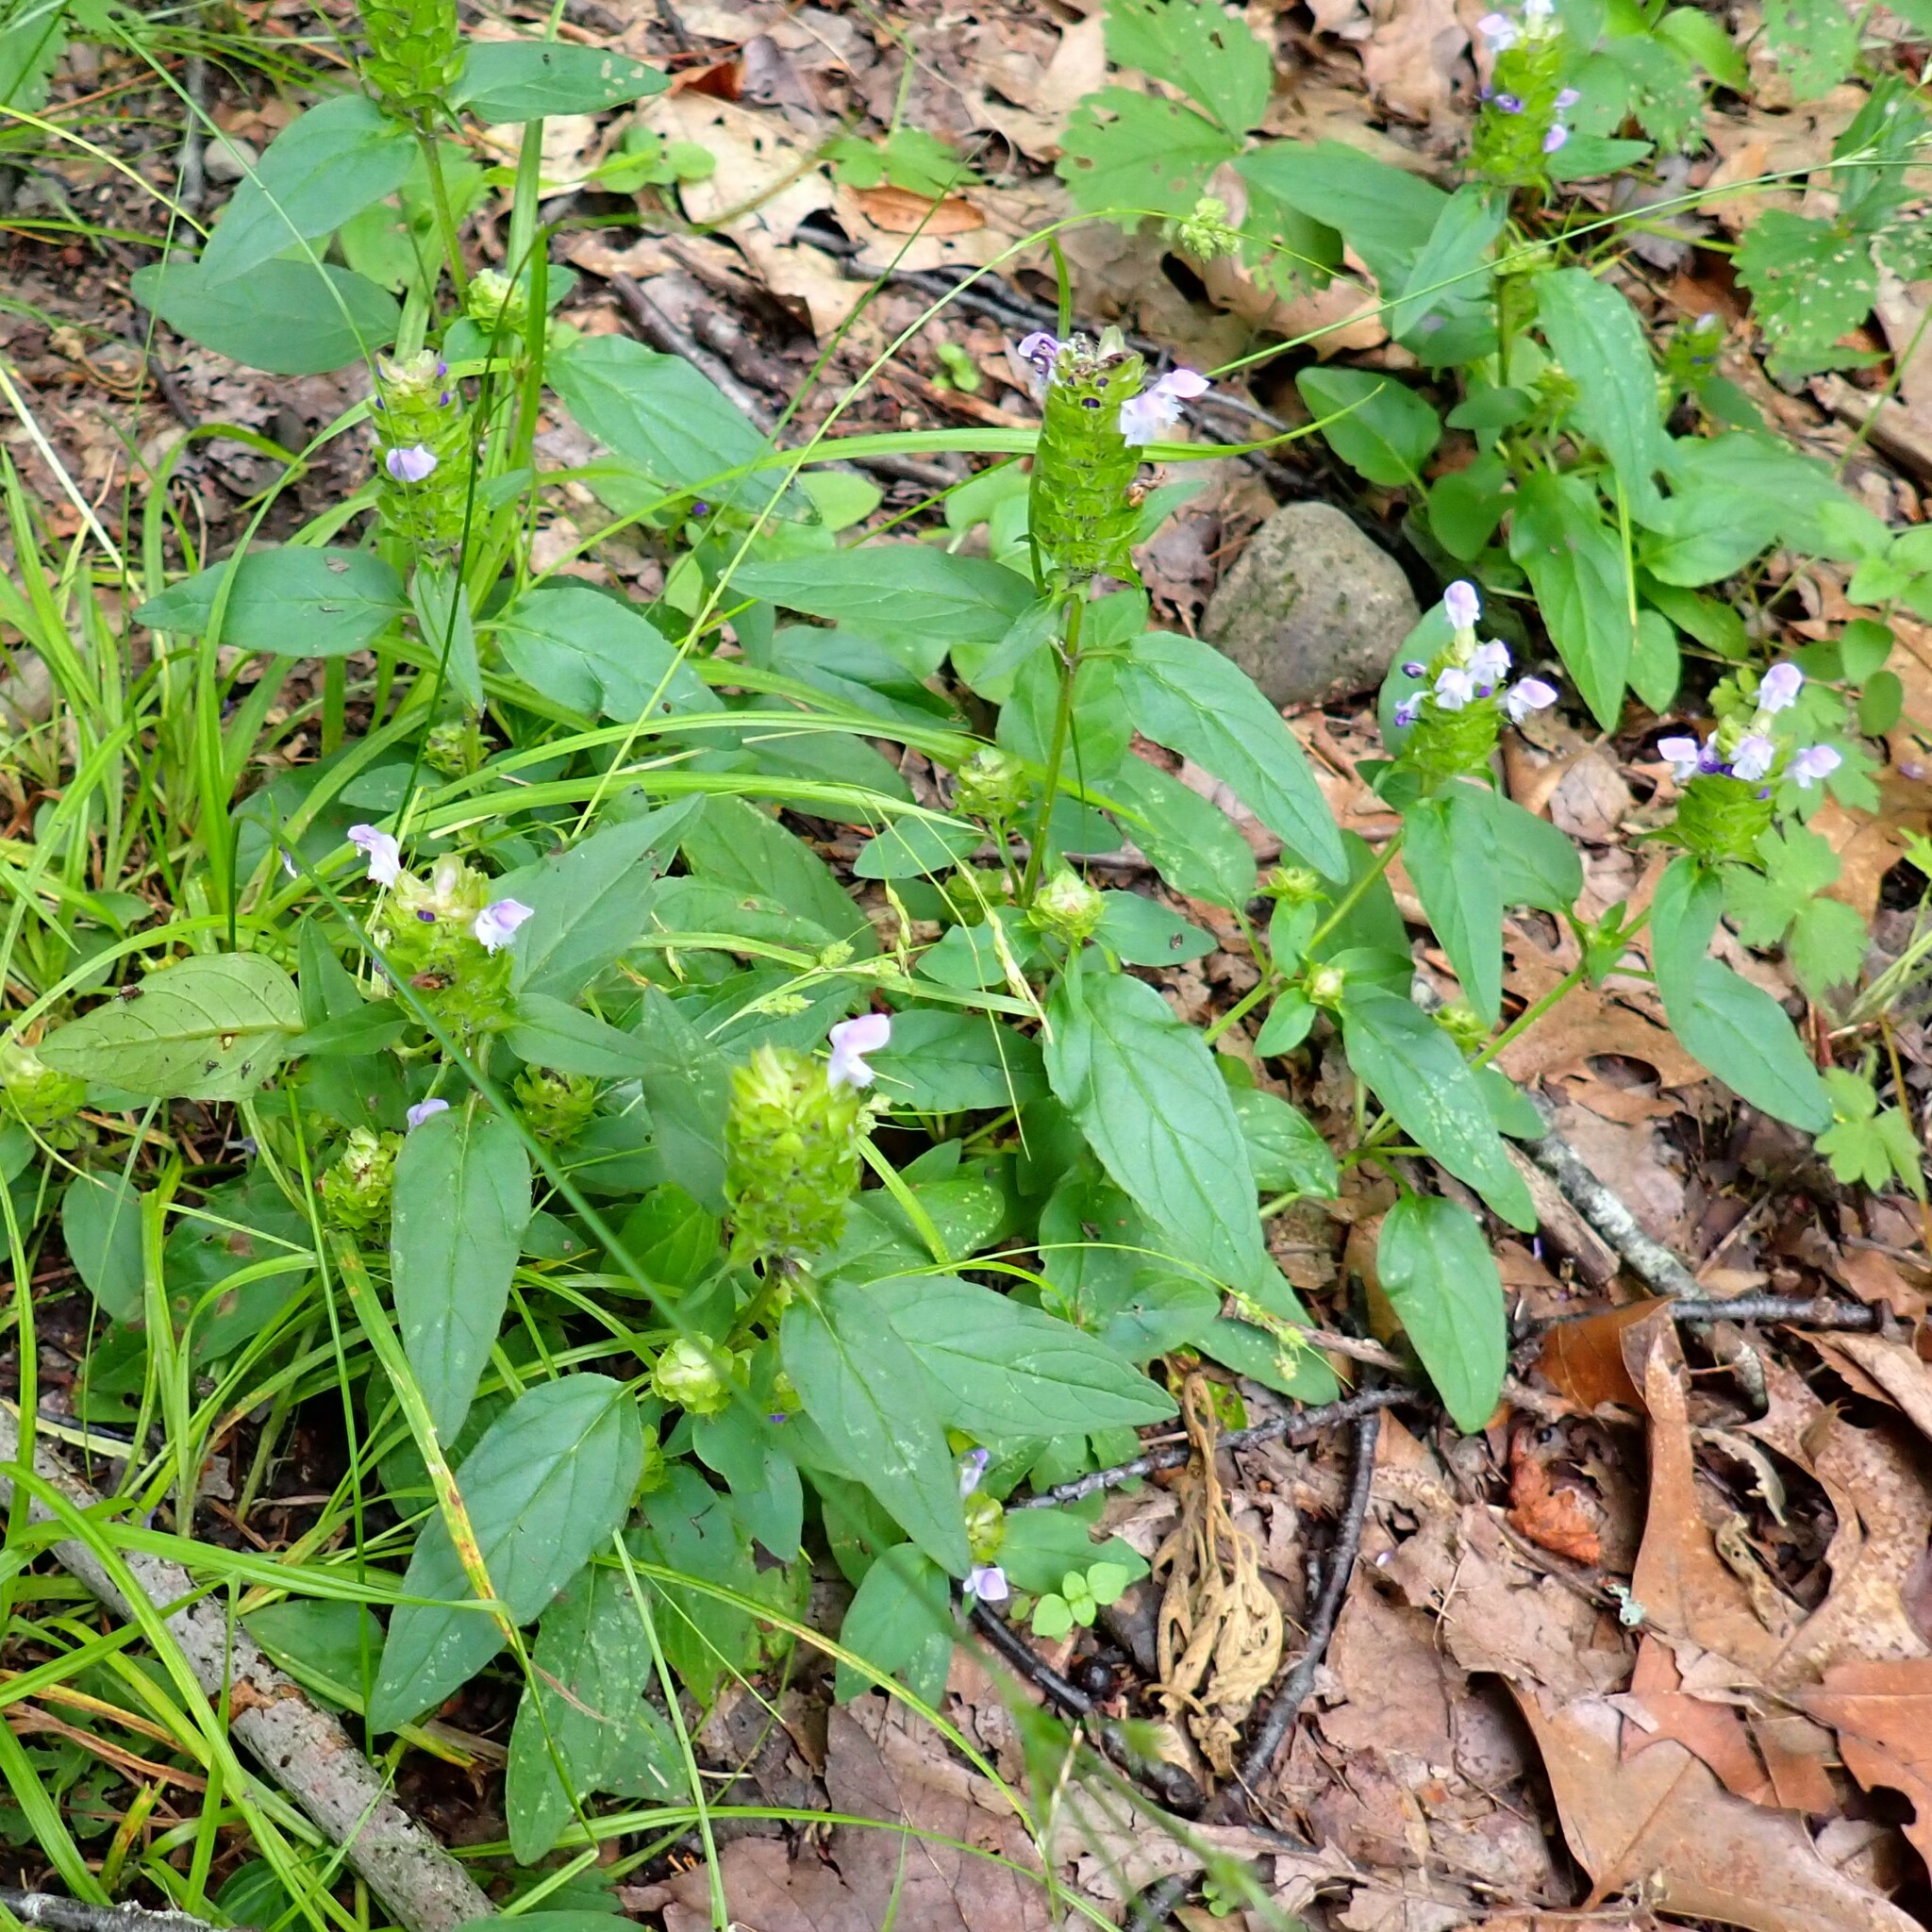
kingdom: Plantae
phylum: Tracheophyta
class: Magnoliopsida
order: Lamiales
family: Lamiaceae
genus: Prunella
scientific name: Prunella vulgaris
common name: Heal-all
